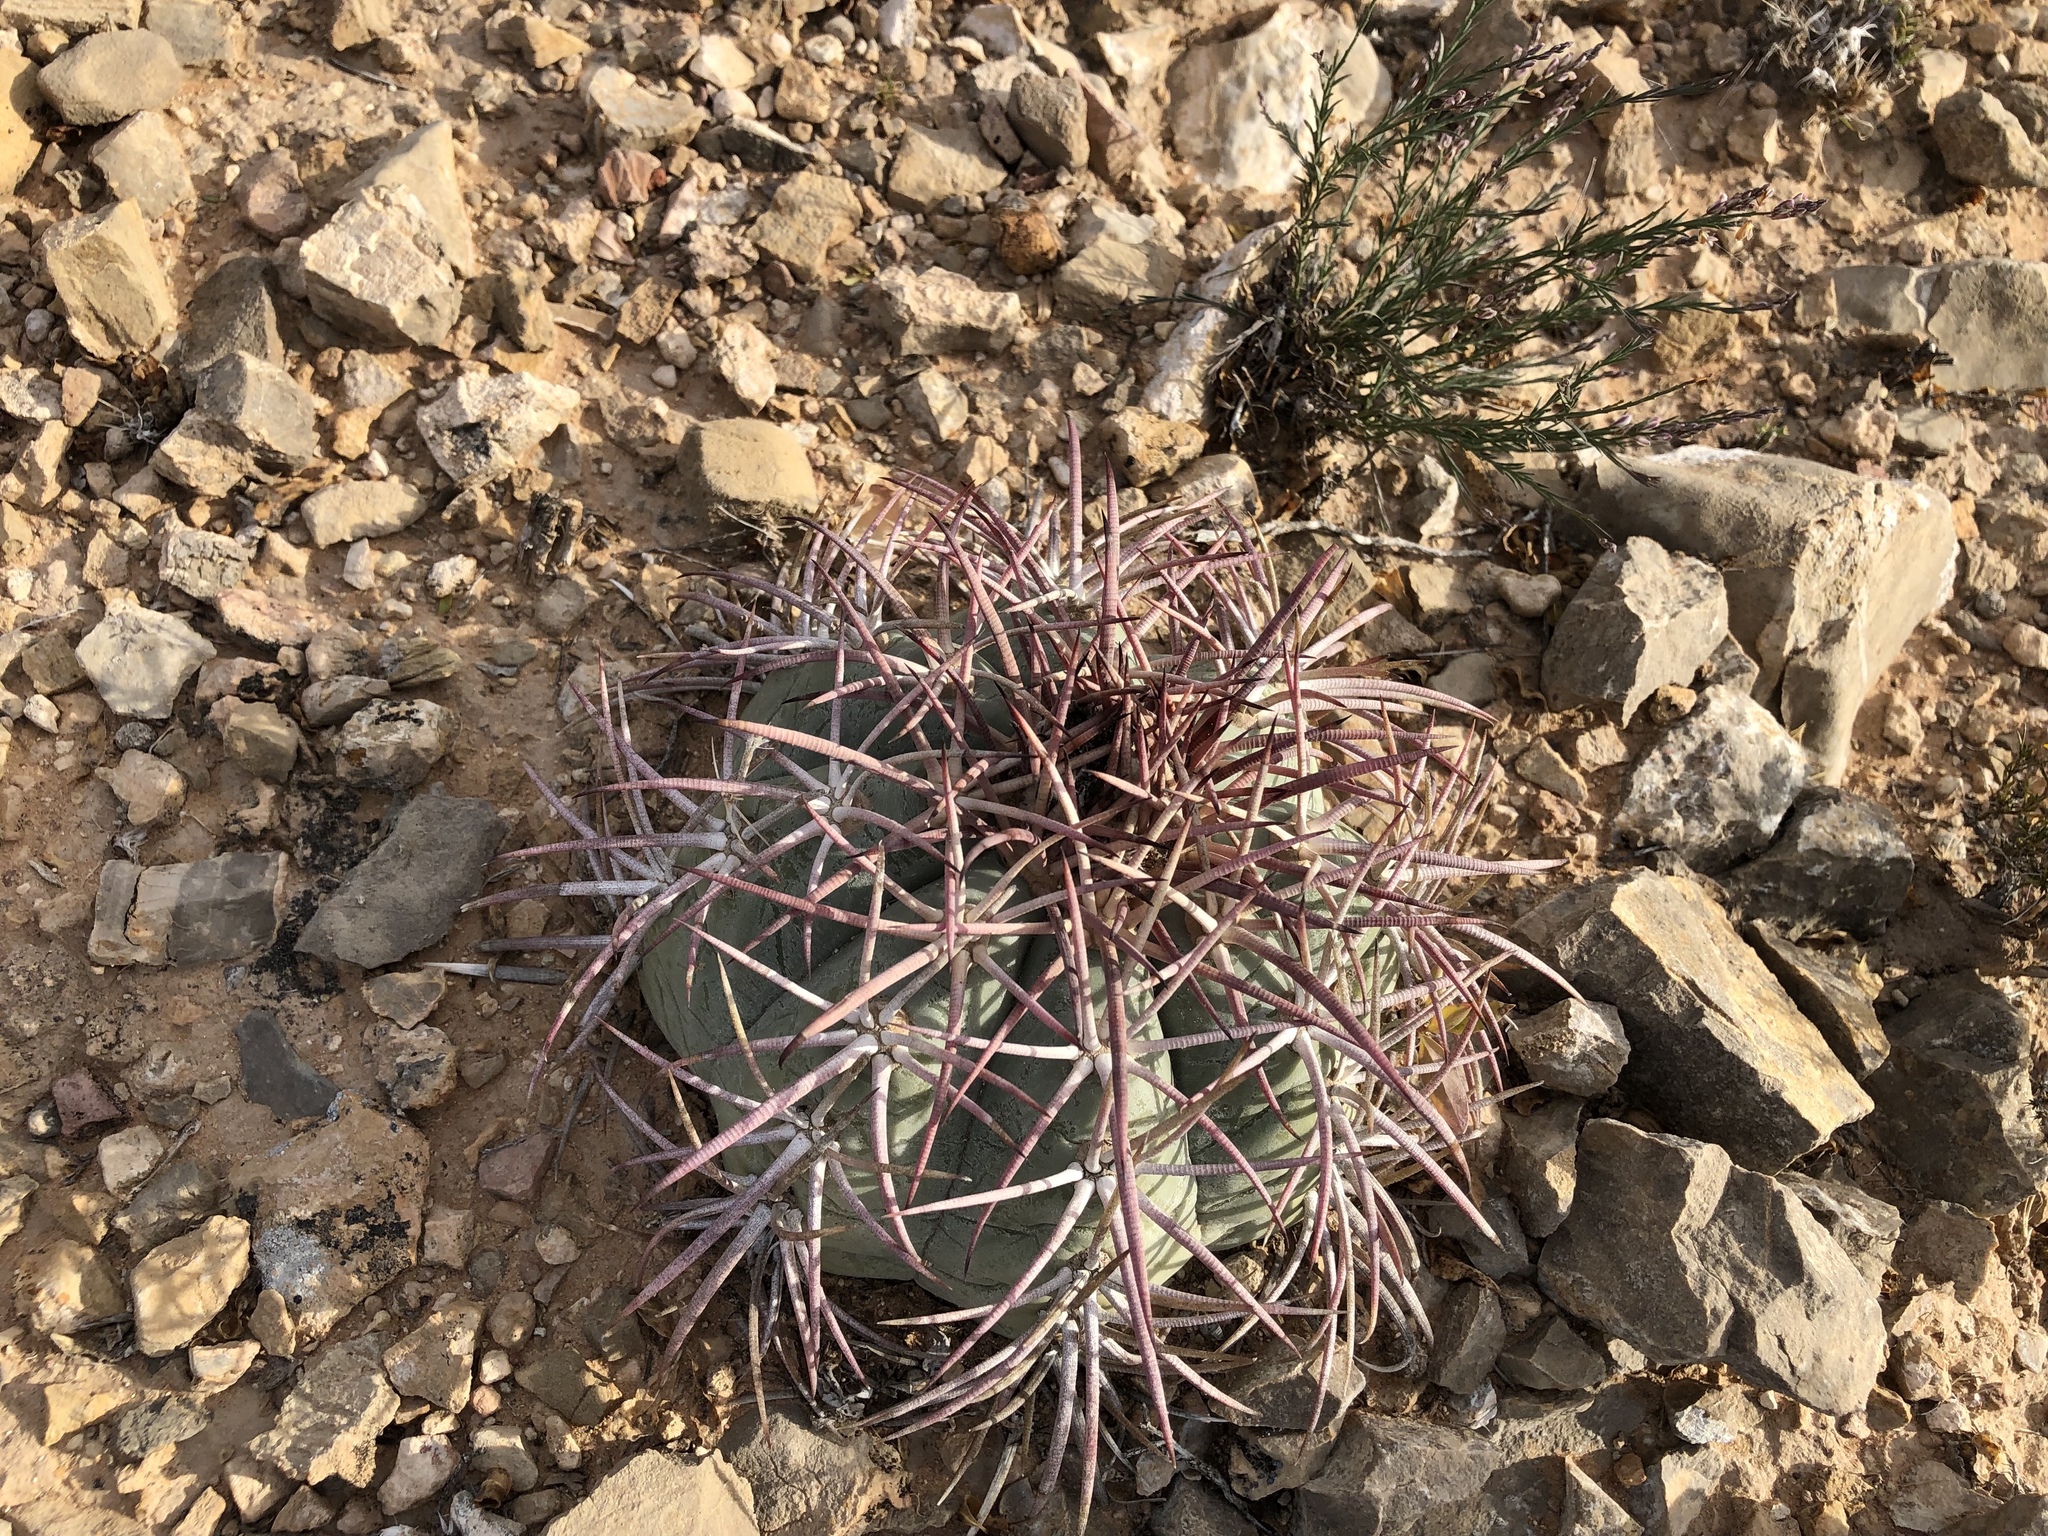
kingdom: Plantae
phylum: Tracheophyta
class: Magnoliopsida
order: Caryophyllales
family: Cactaceae
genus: Echinocactus
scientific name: Echinocactus horizonthalonius
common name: Devilshead
